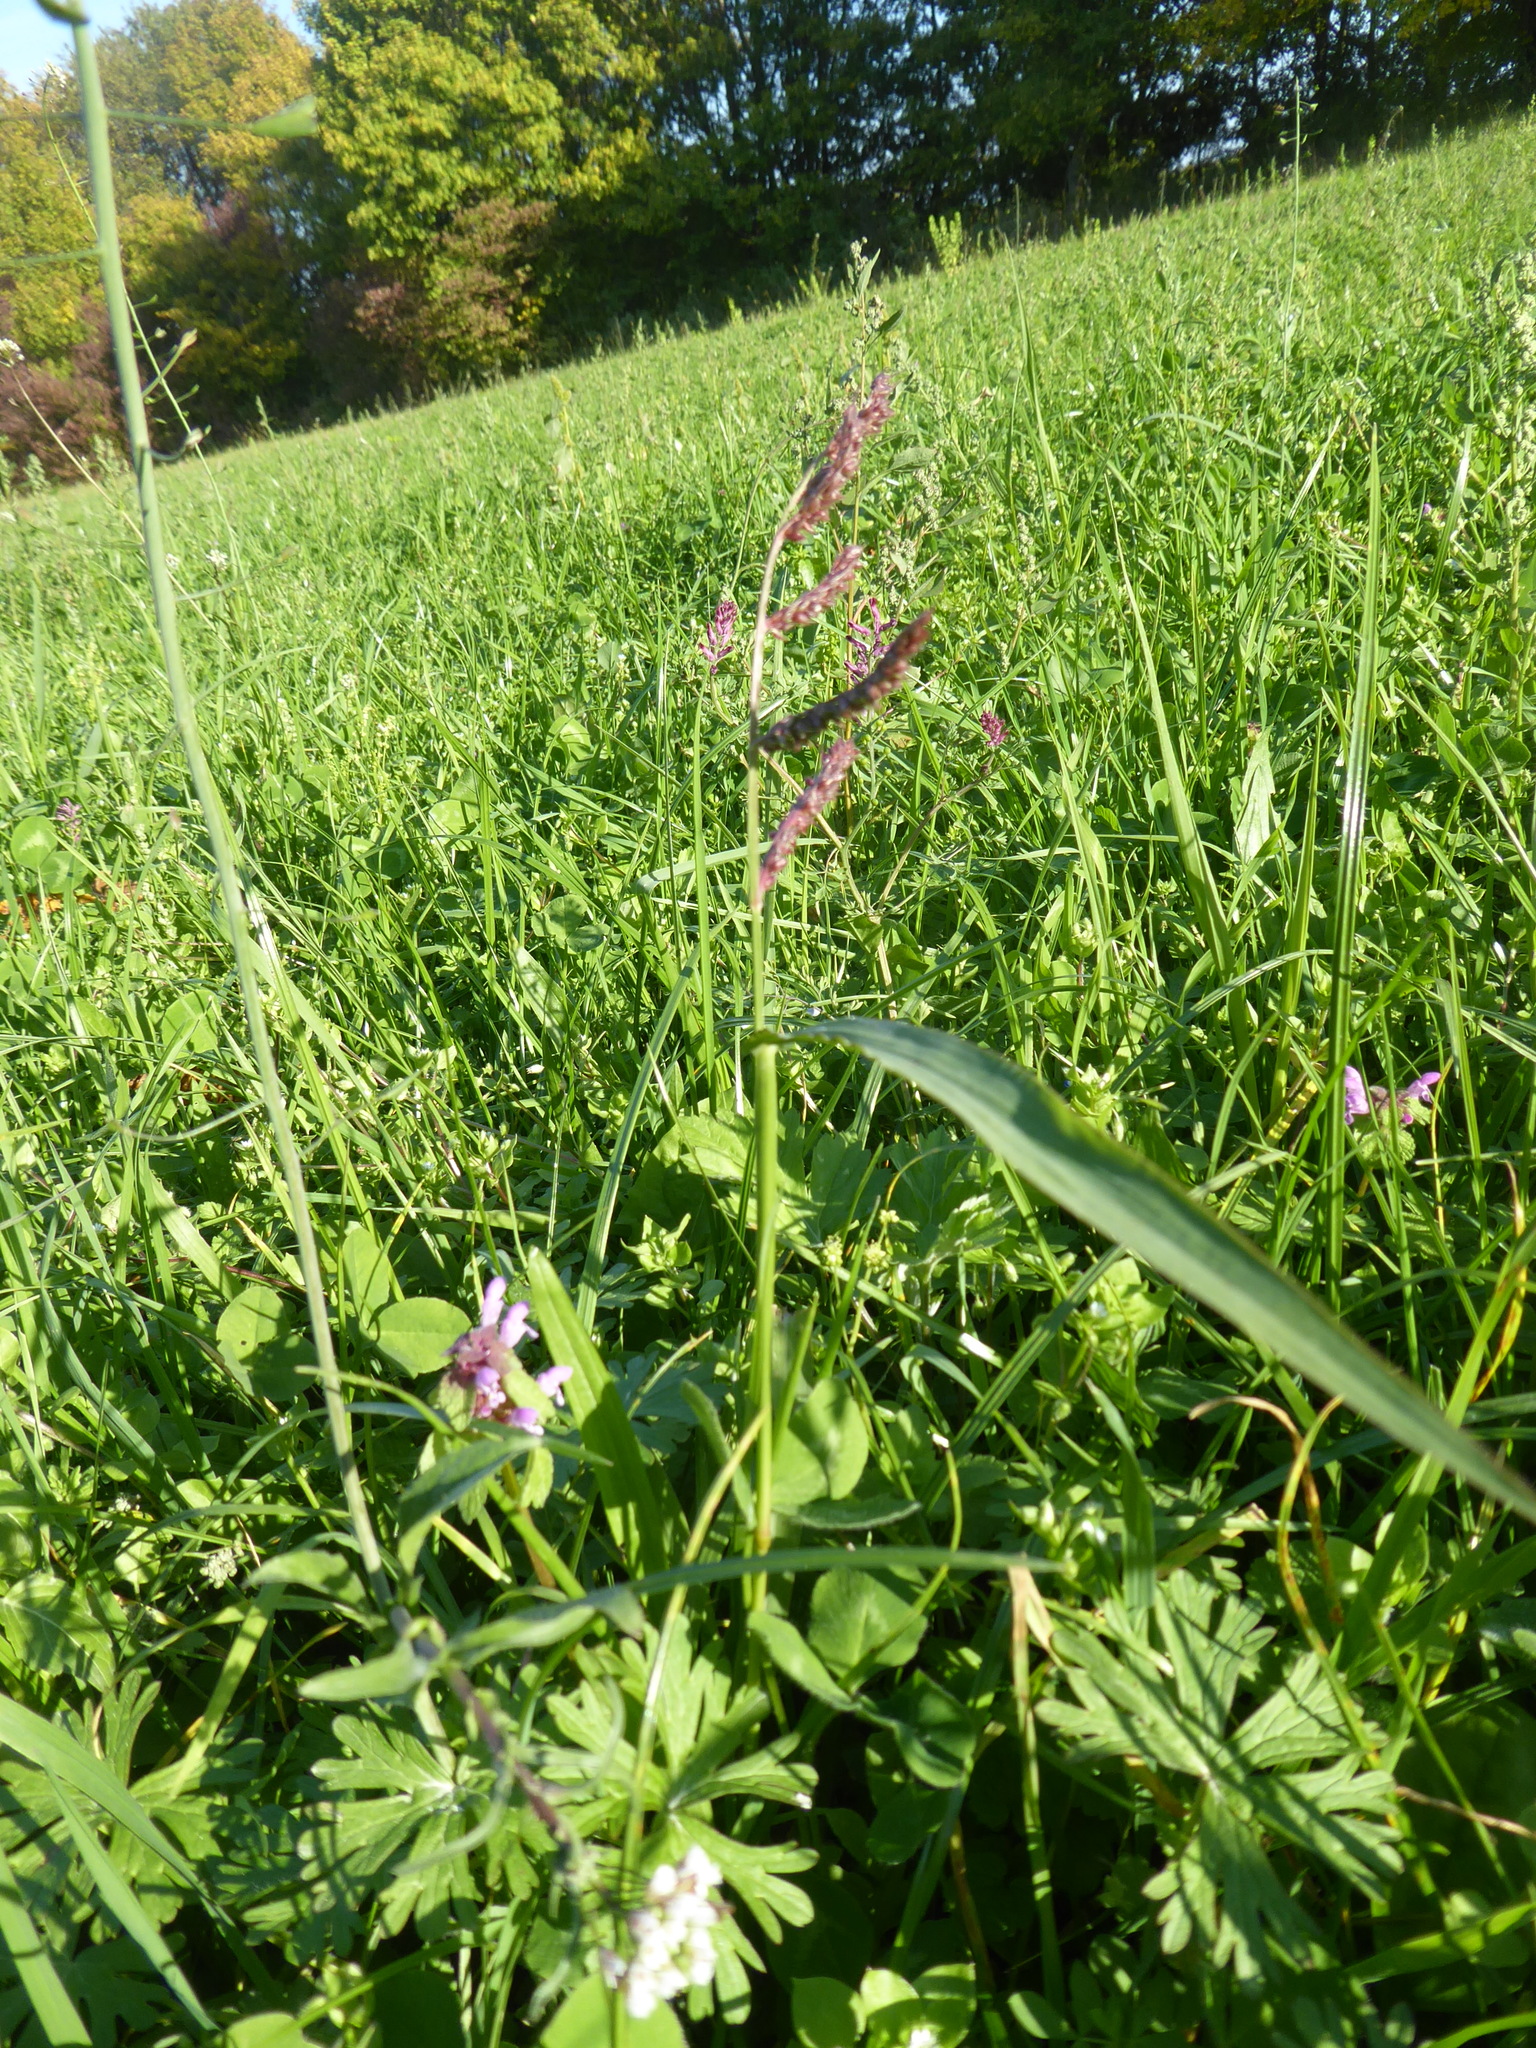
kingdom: Plantae
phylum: Tracheophyta
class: Liliopsida
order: Poales
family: Poaceae
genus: Echinochloa
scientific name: Echinochloa crus-galli
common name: Cockspur
